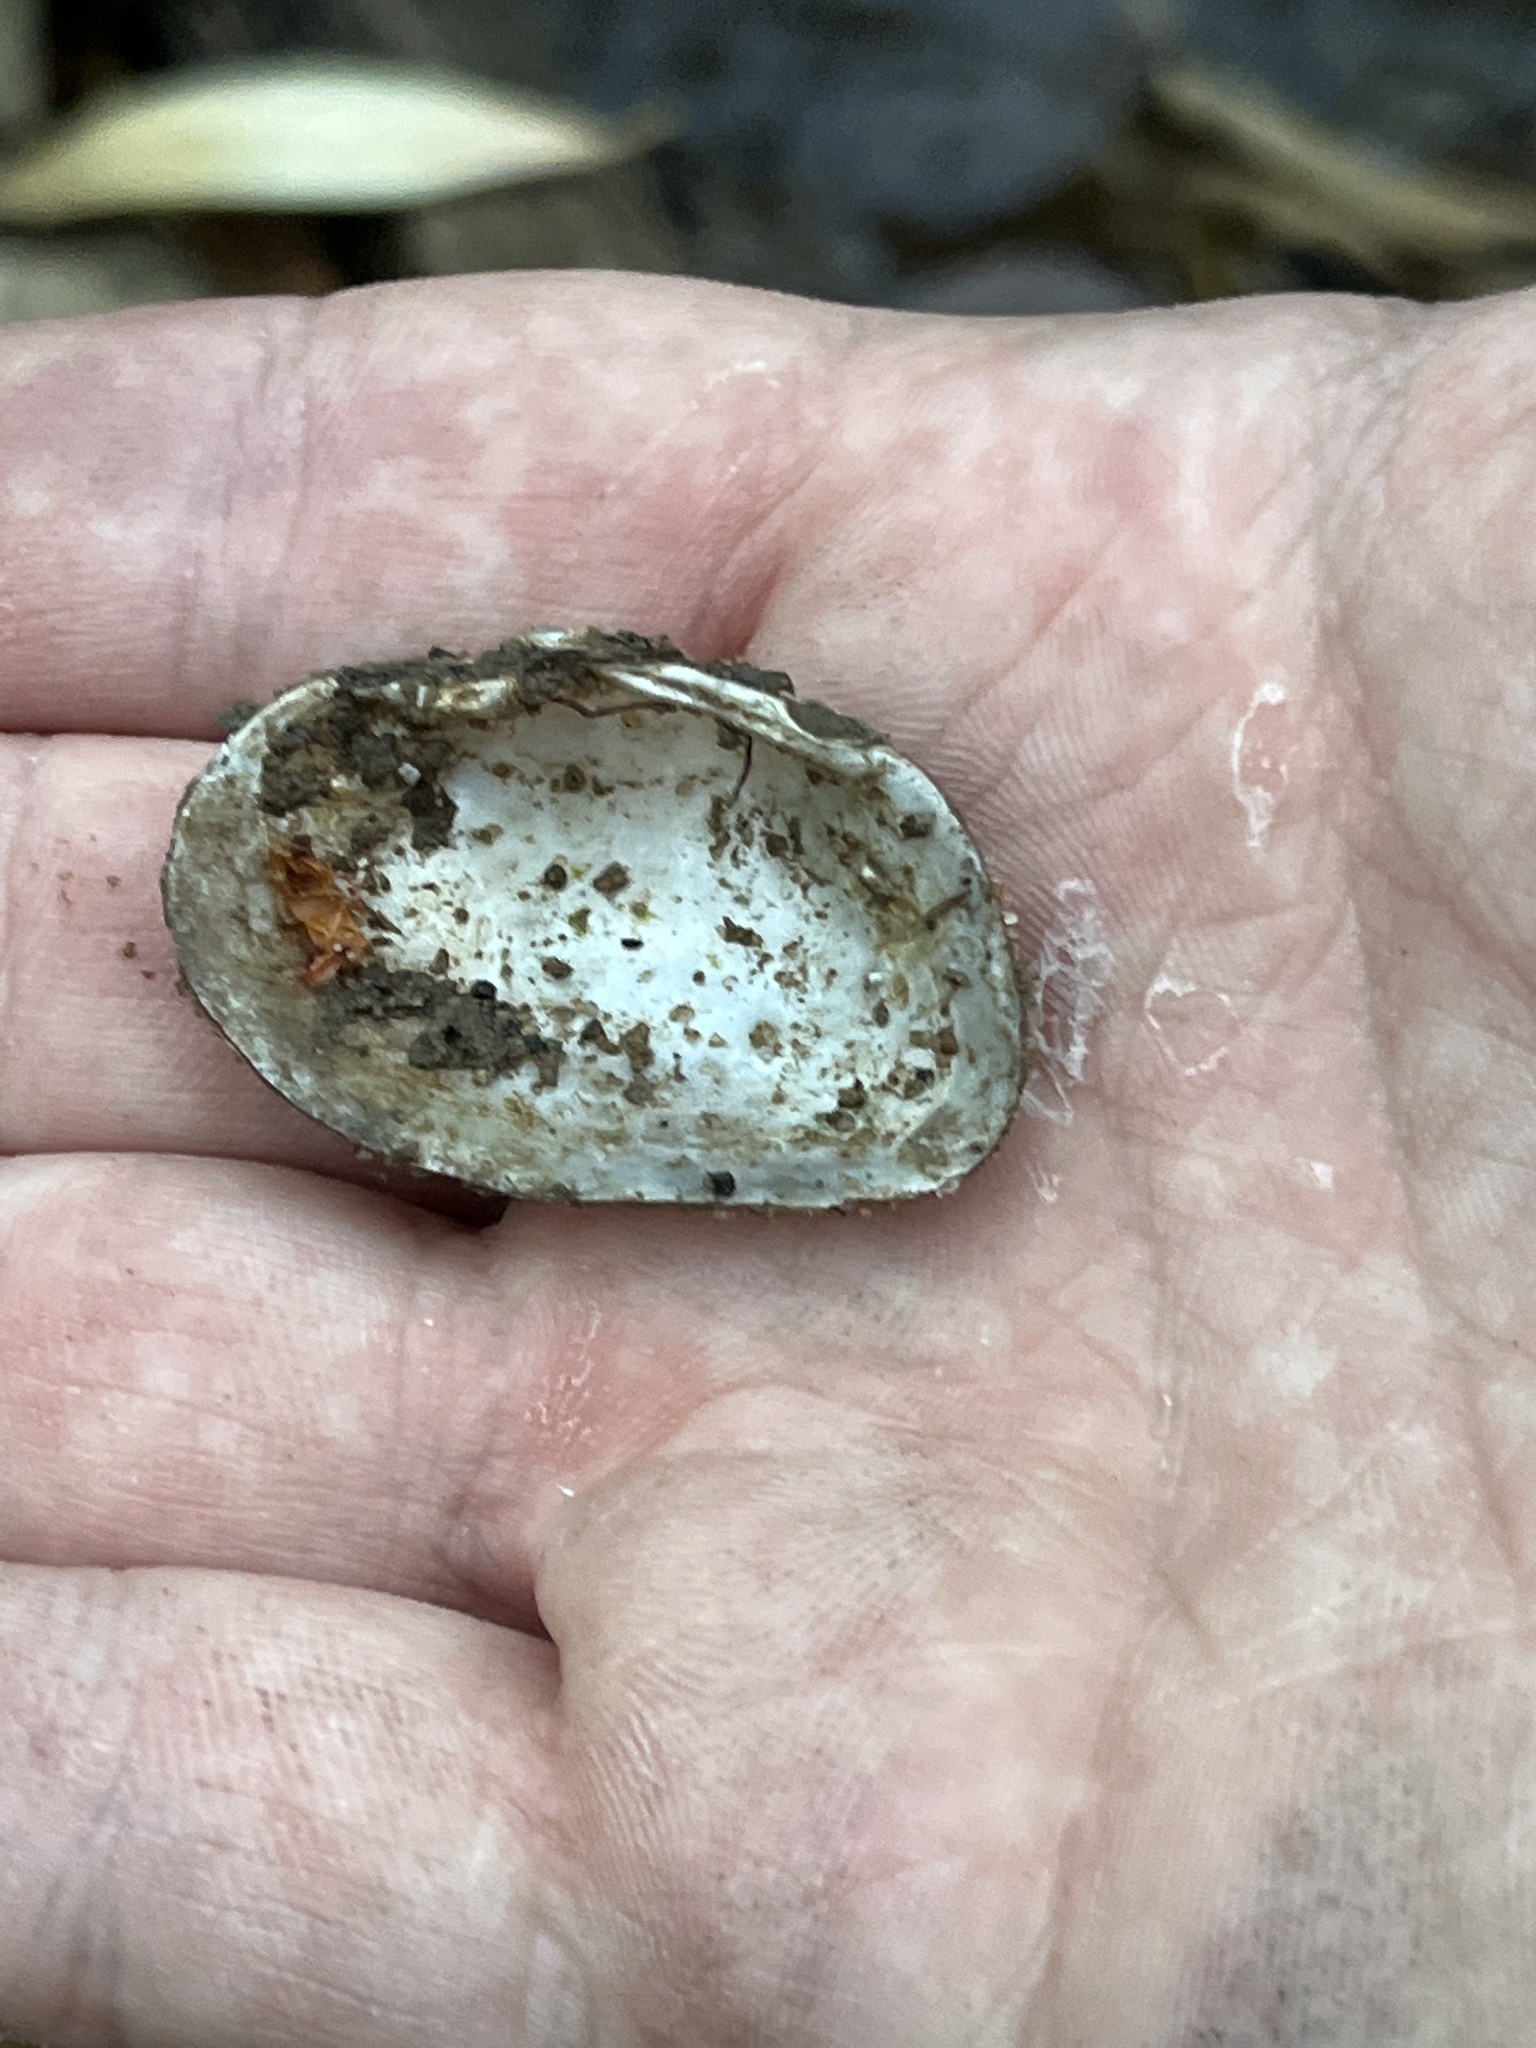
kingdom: Animalia
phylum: Mollusca
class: Bivalvia
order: Unionida
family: Unionidae
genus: Alasmidonta
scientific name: Alasmidonta viridis
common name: Slippershell mussel
